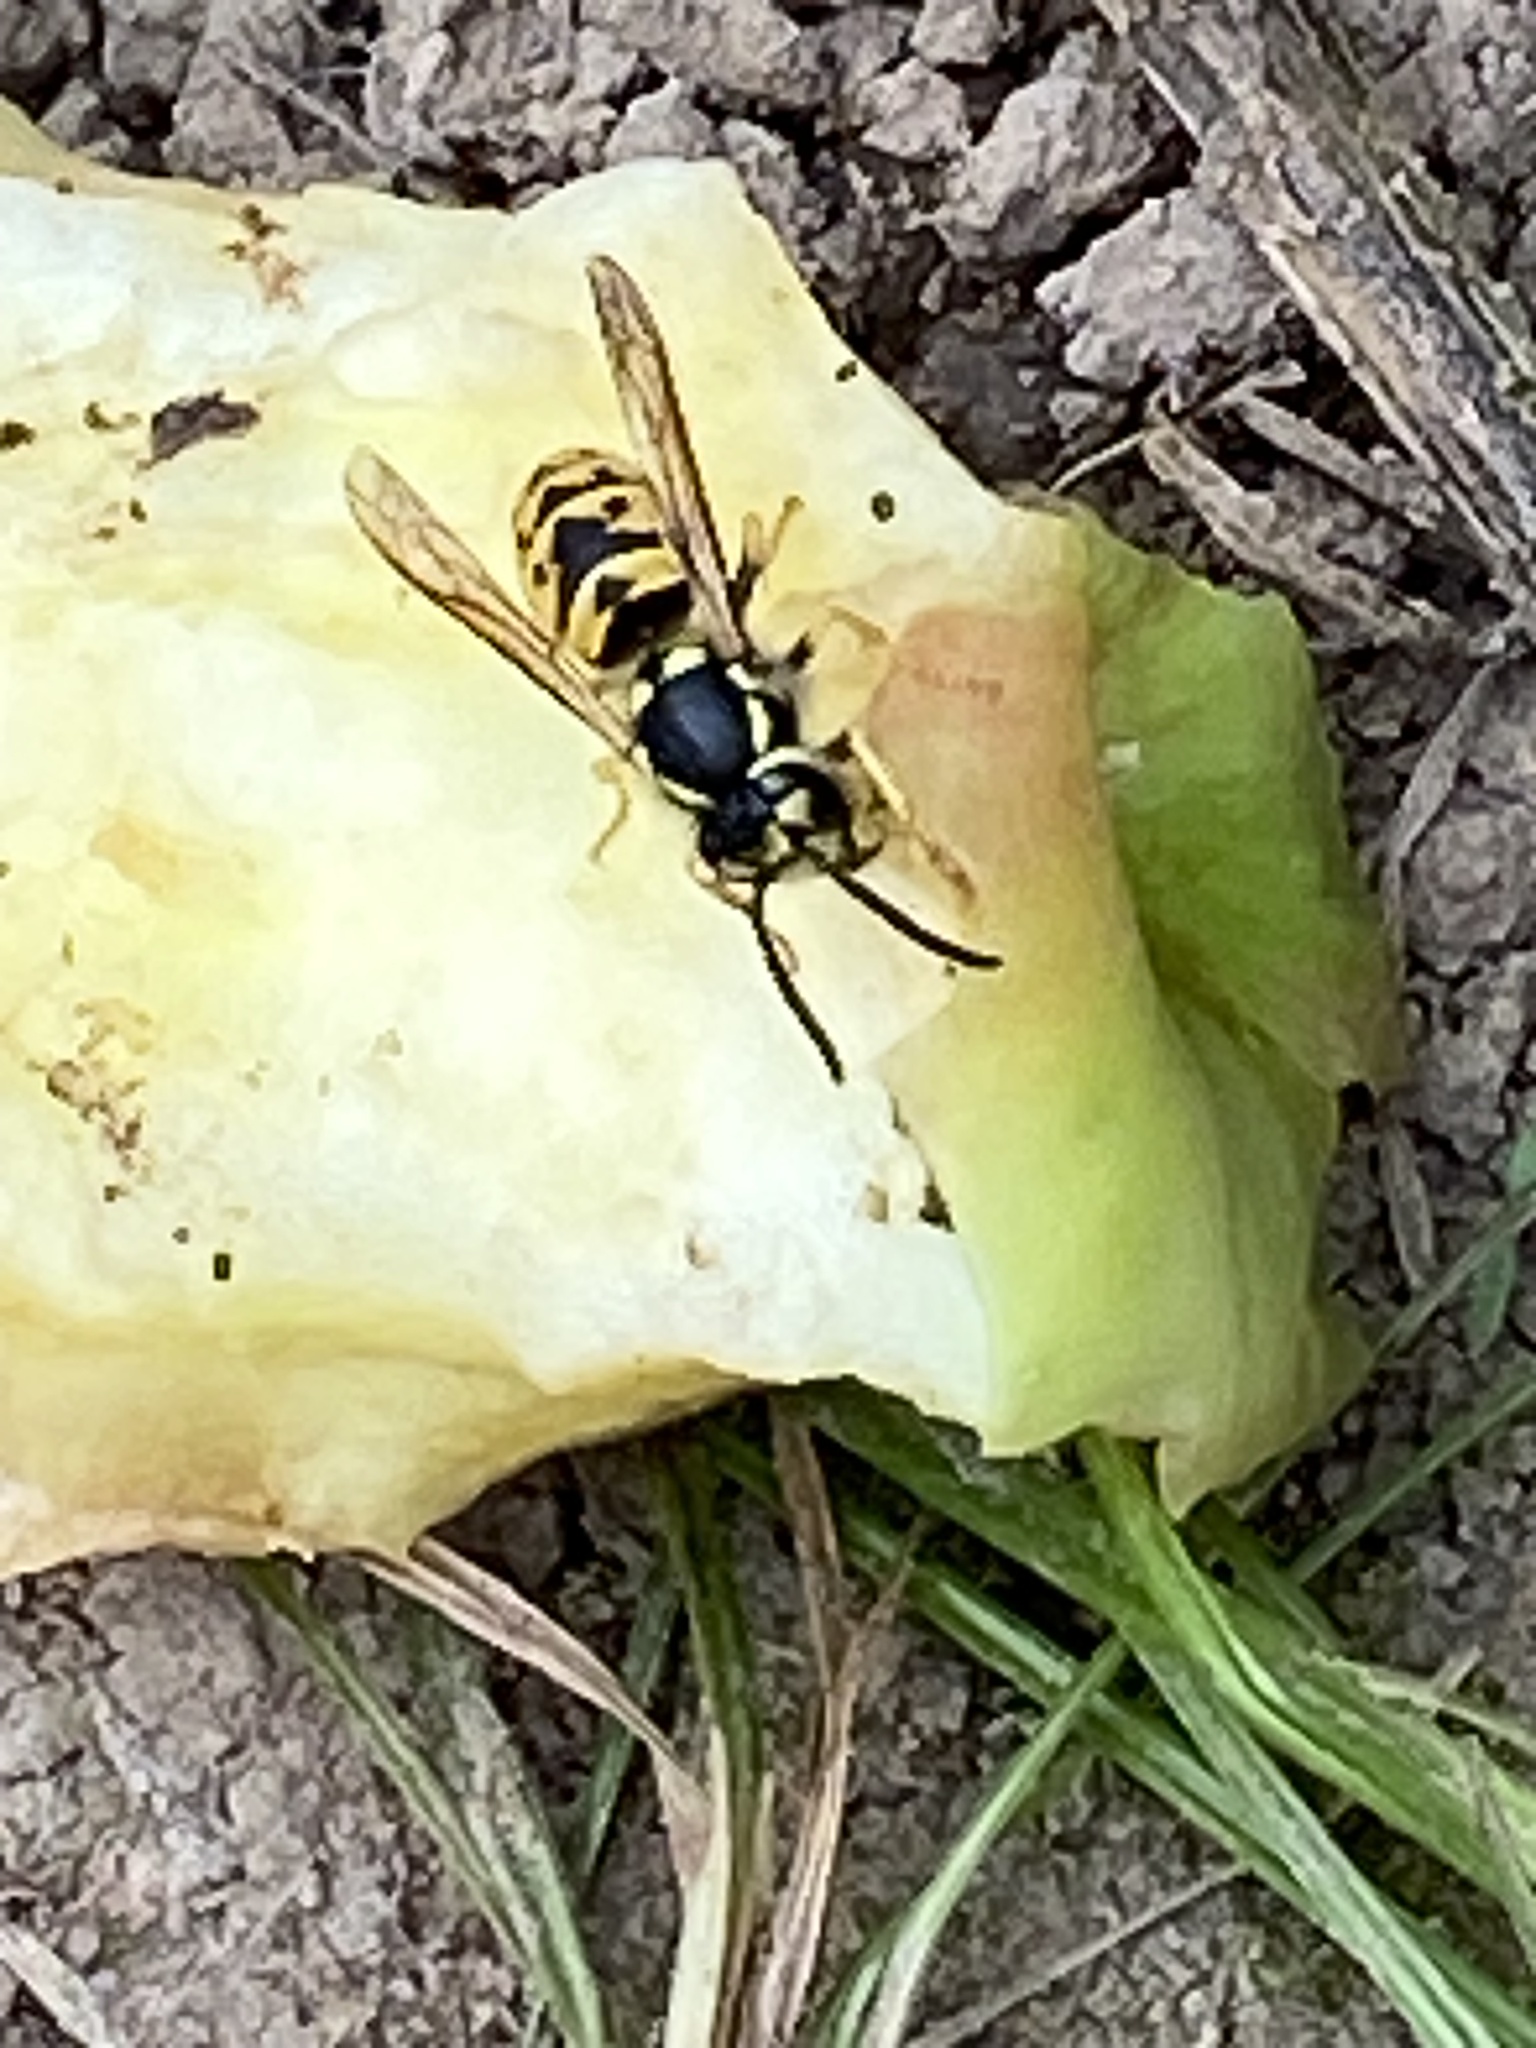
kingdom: Animalia
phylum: Arthropoda
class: Insecta
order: Hymenoptera
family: Vespidae
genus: Vespula
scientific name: Vespula germanica
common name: German wasp
